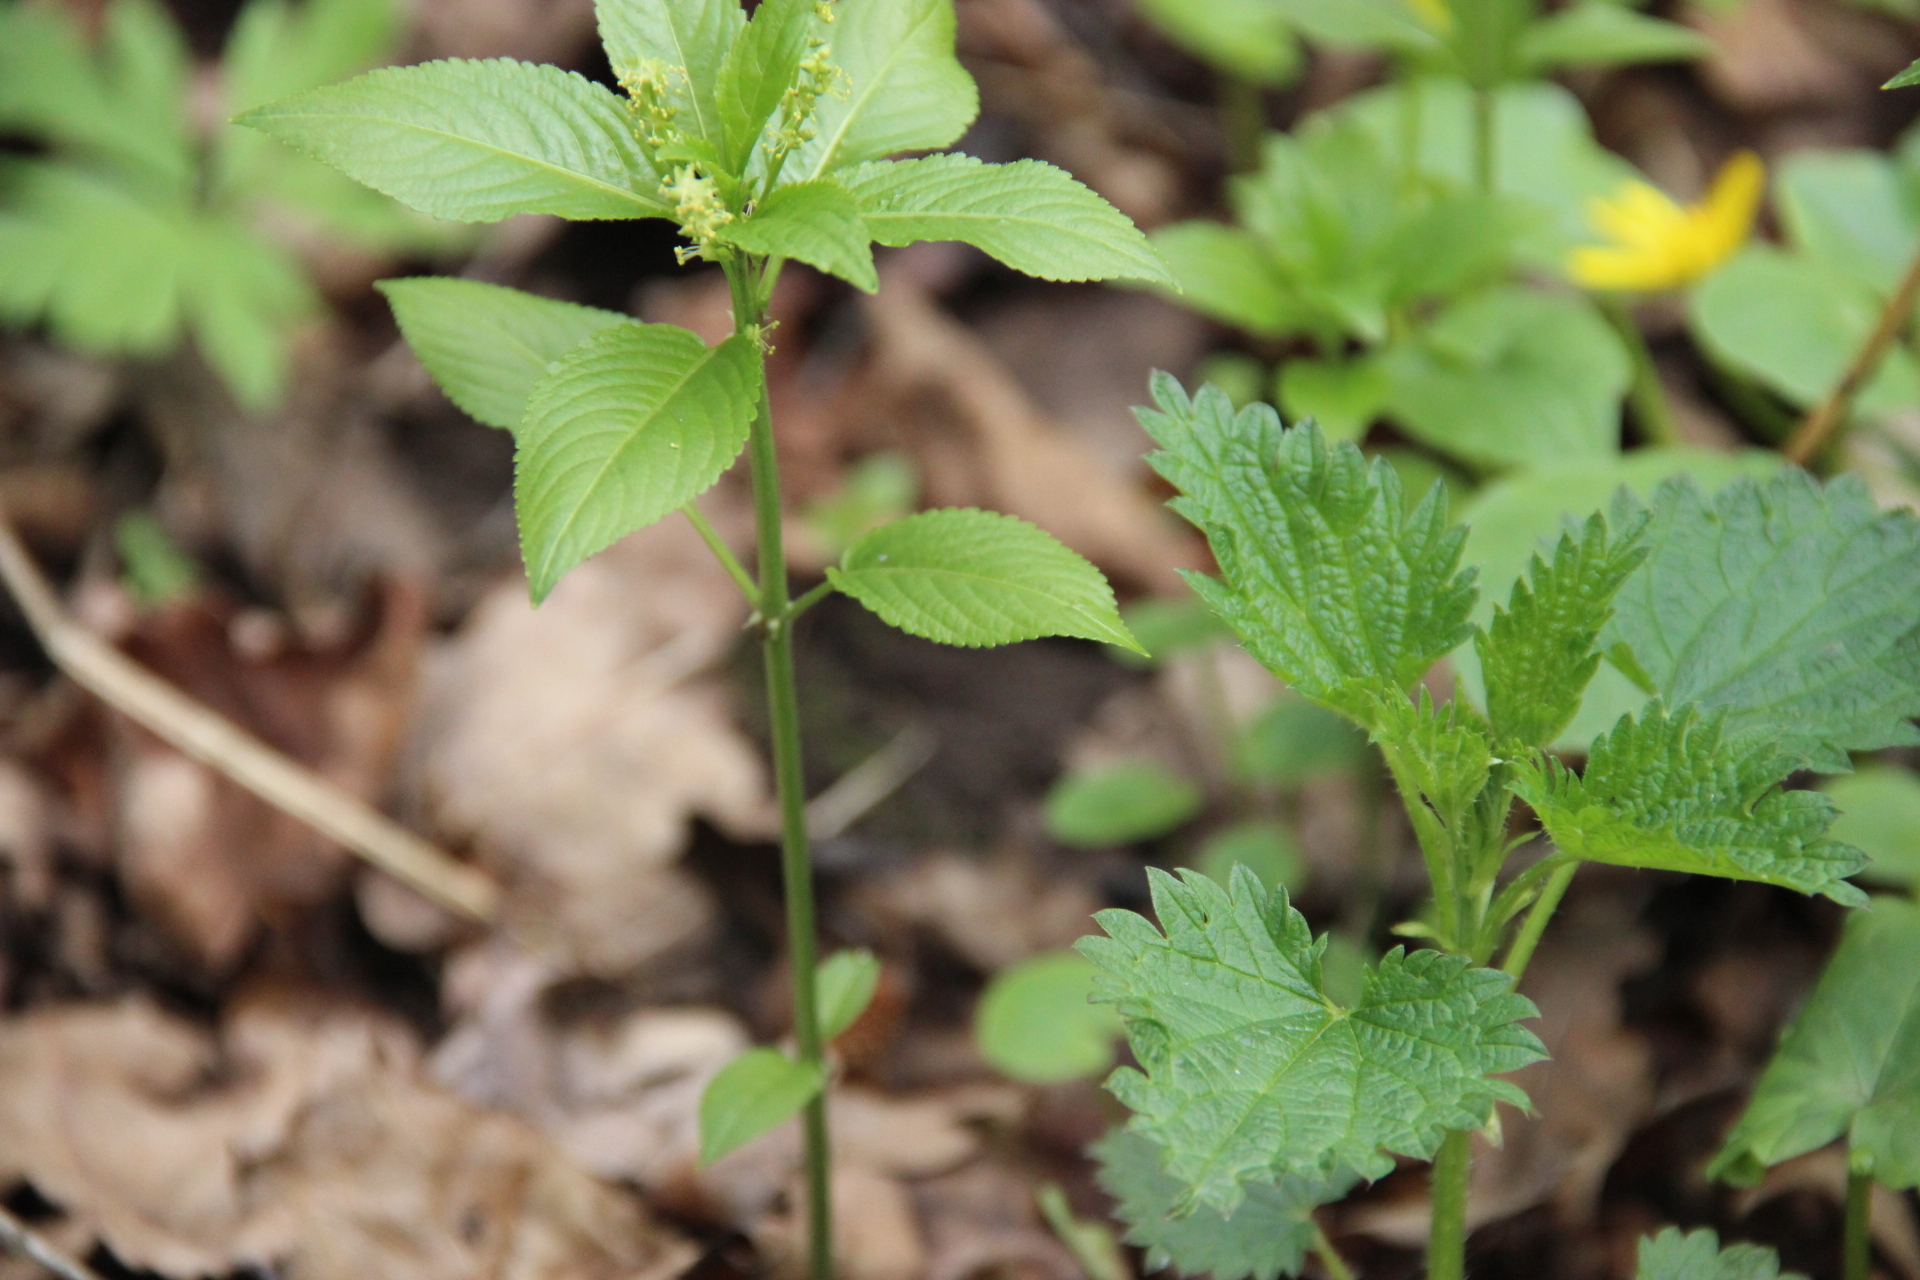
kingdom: Plantae
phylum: Tracheophyta
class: Magnoliopsida
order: Malpighiales
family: Euphorbiaceae
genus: Mercurialis
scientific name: Mercurialis perennis
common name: Dog mercury
